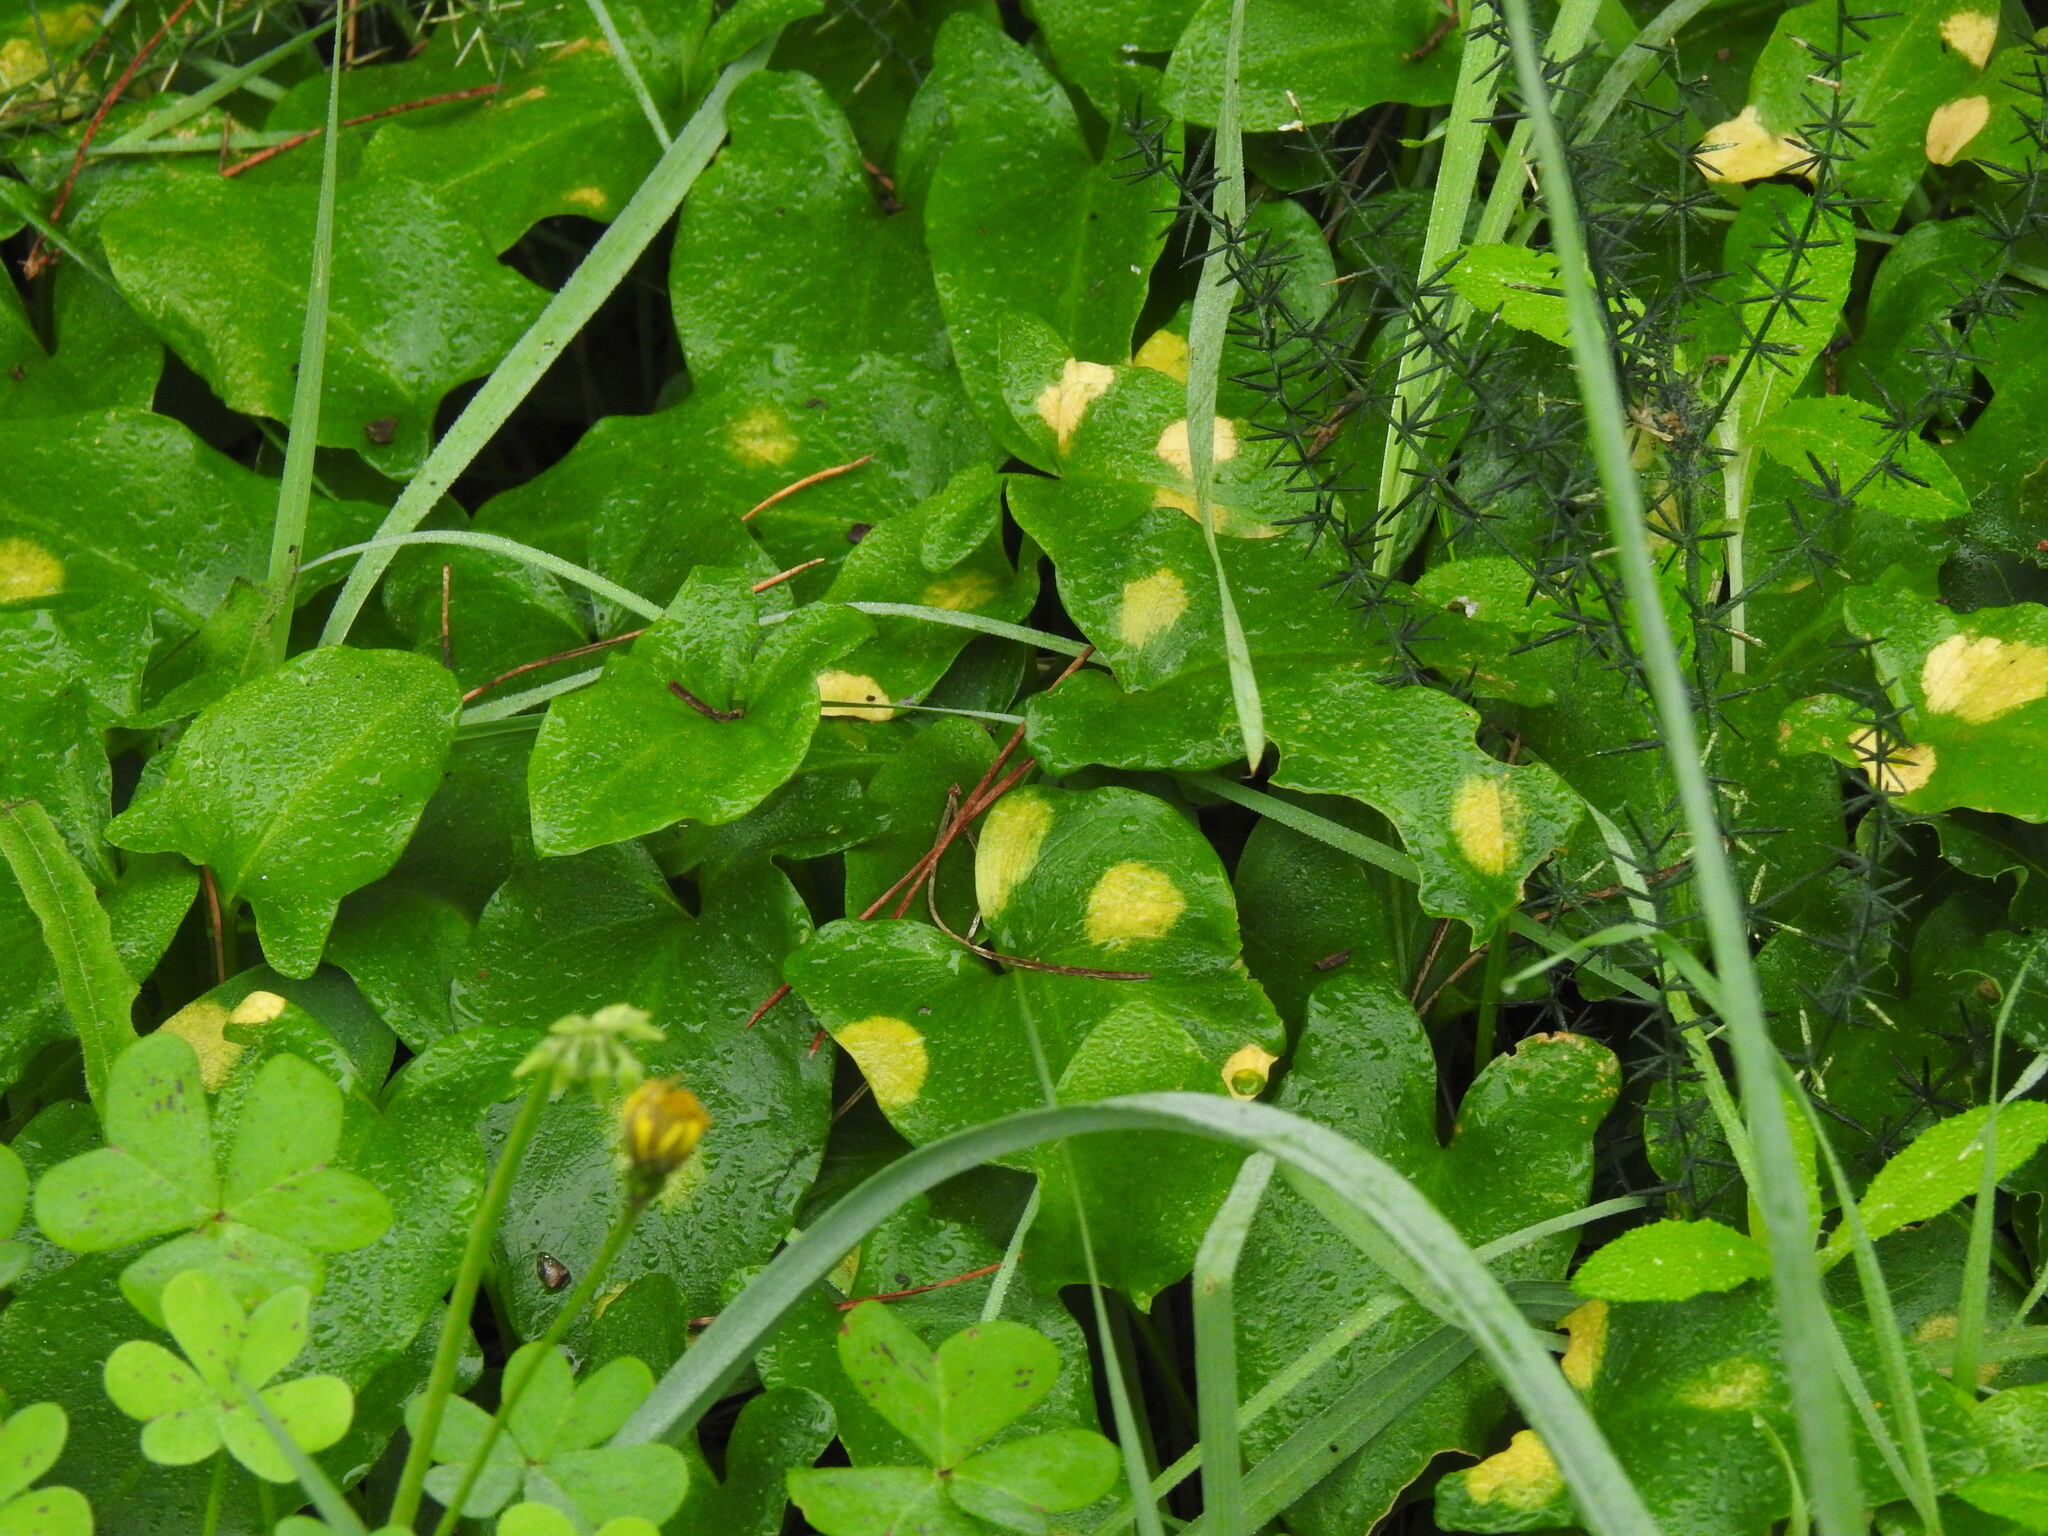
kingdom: Chromista
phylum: Ochrophyta
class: Xanthophyceae
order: Phyllosiphonales
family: Phyllosiphonaceae
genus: Phyllosiphon
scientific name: Phyllosiphon arisari
